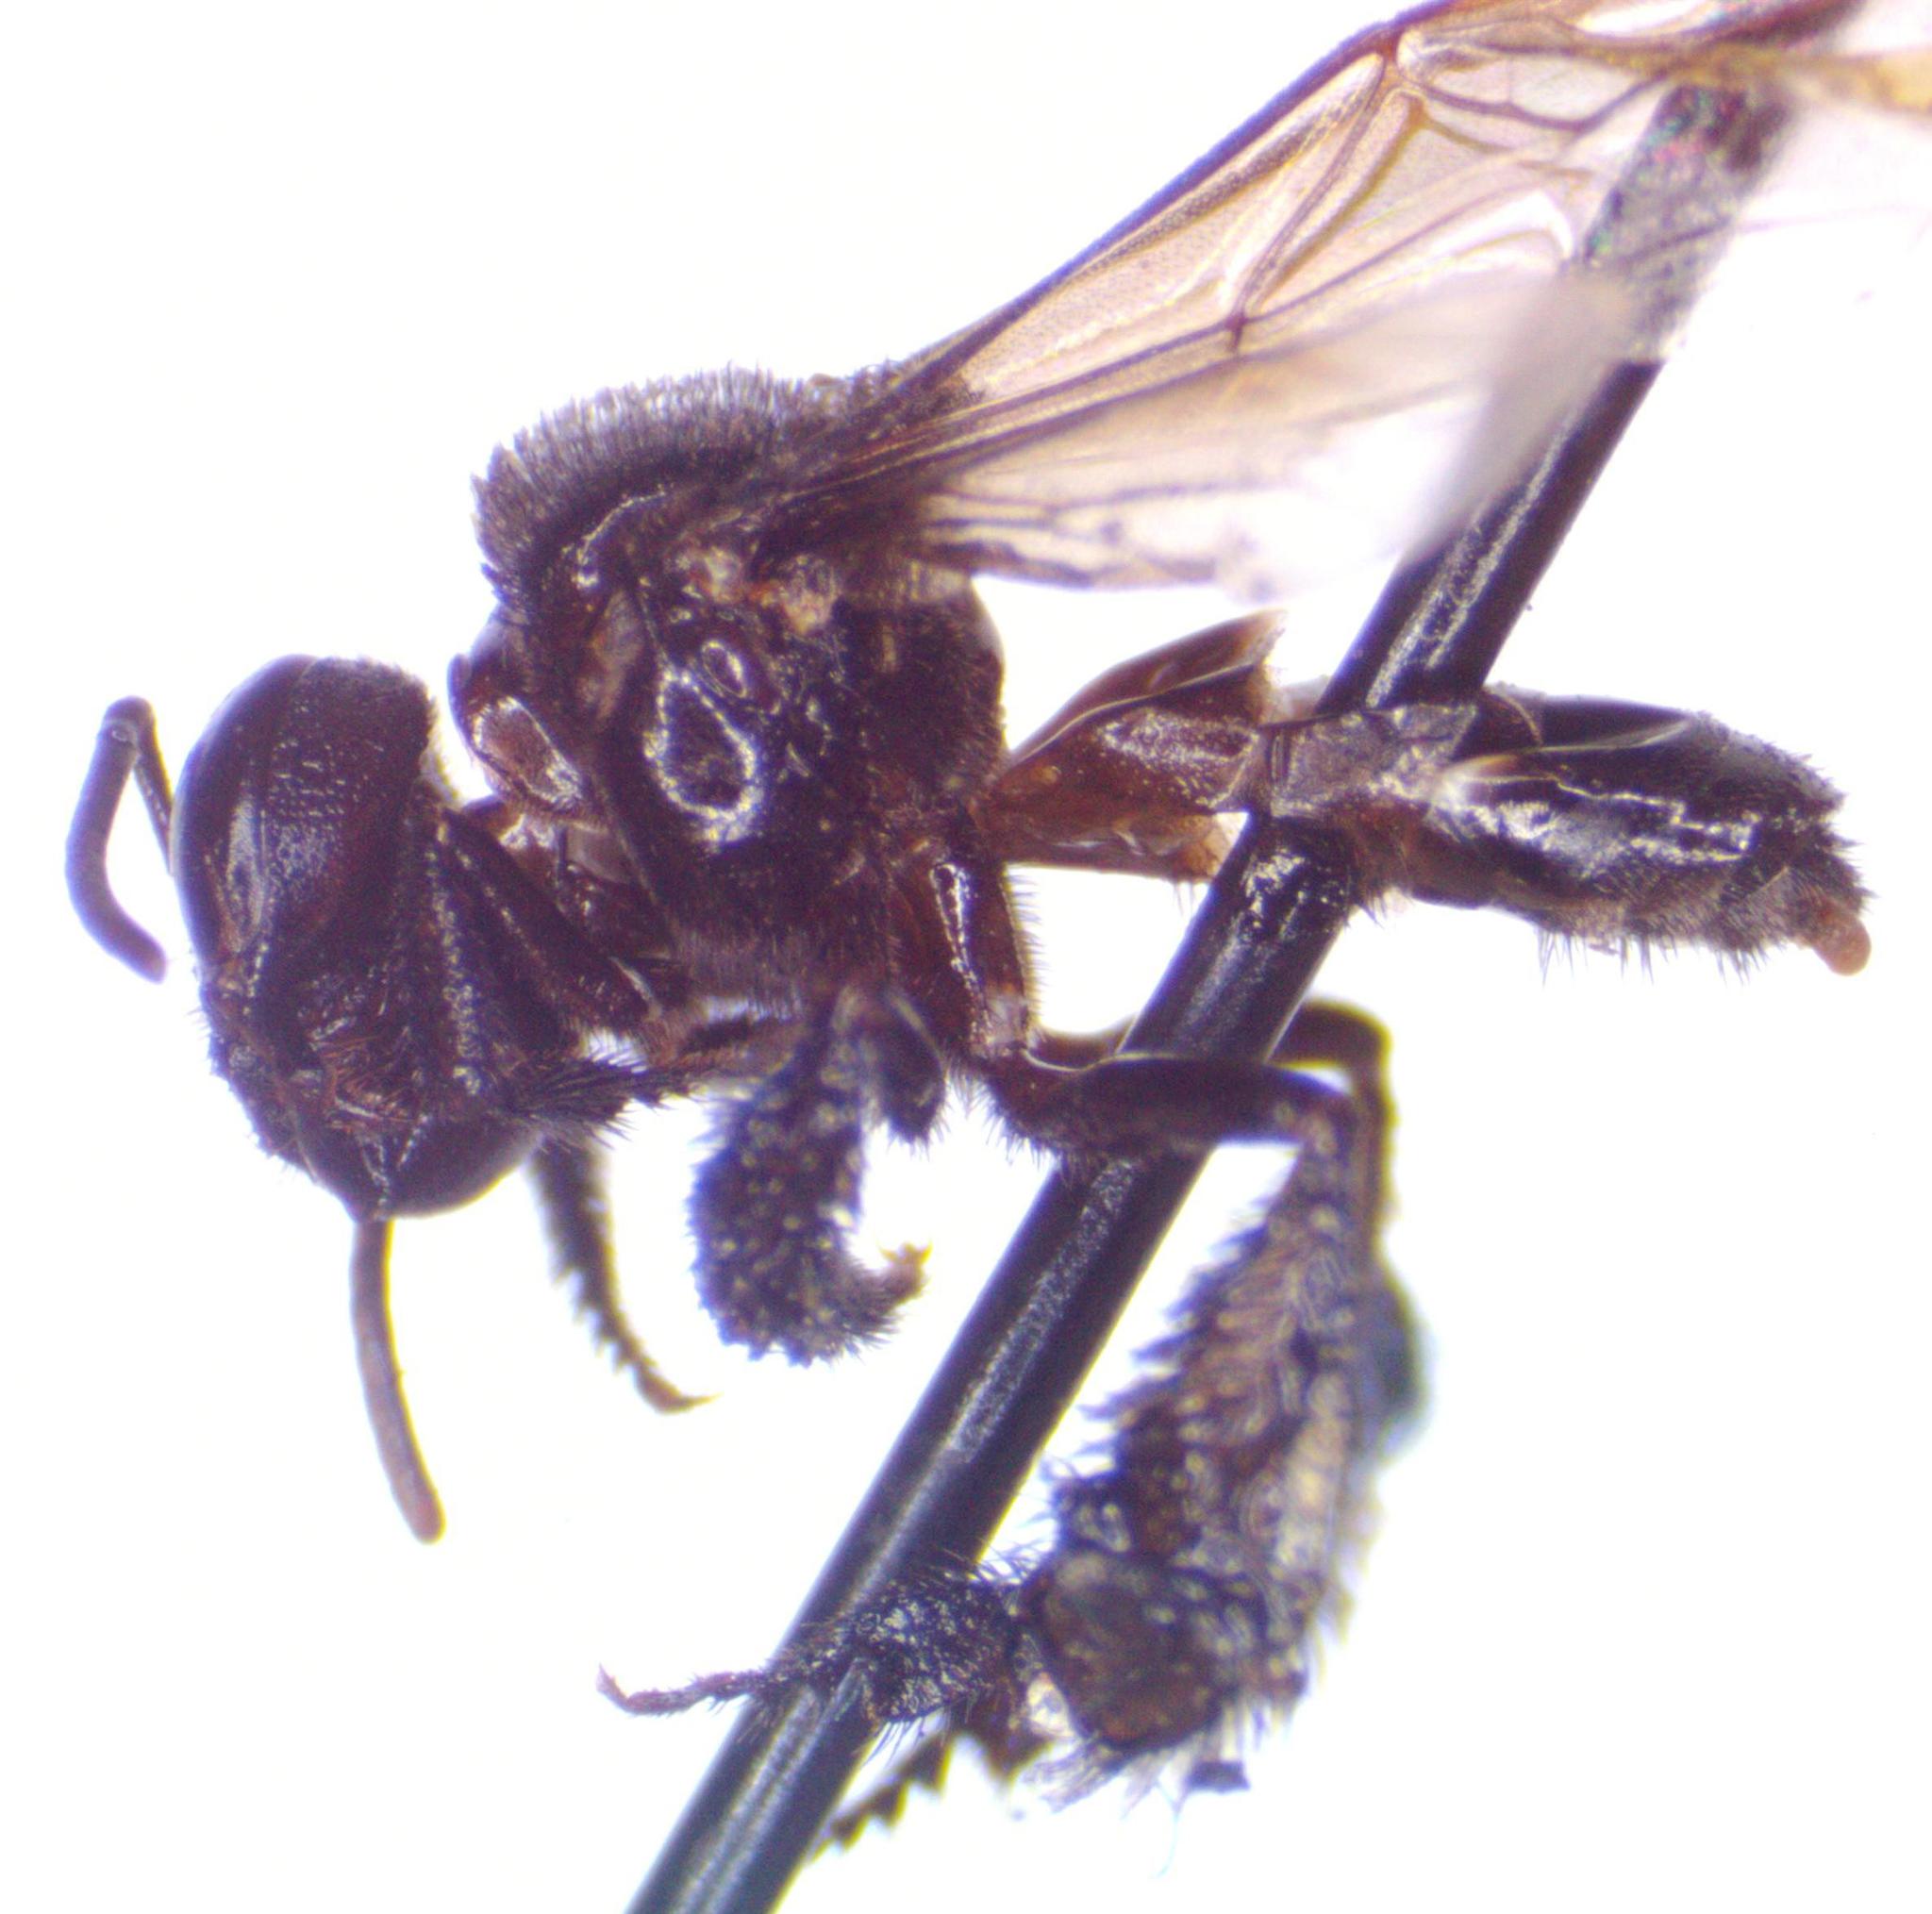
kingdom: Animalia
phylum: Arthropoda
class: Insecta
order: Hymenoptera
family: Apidae
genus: Frieseomelitta
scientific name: Frieseomelitta paupera
